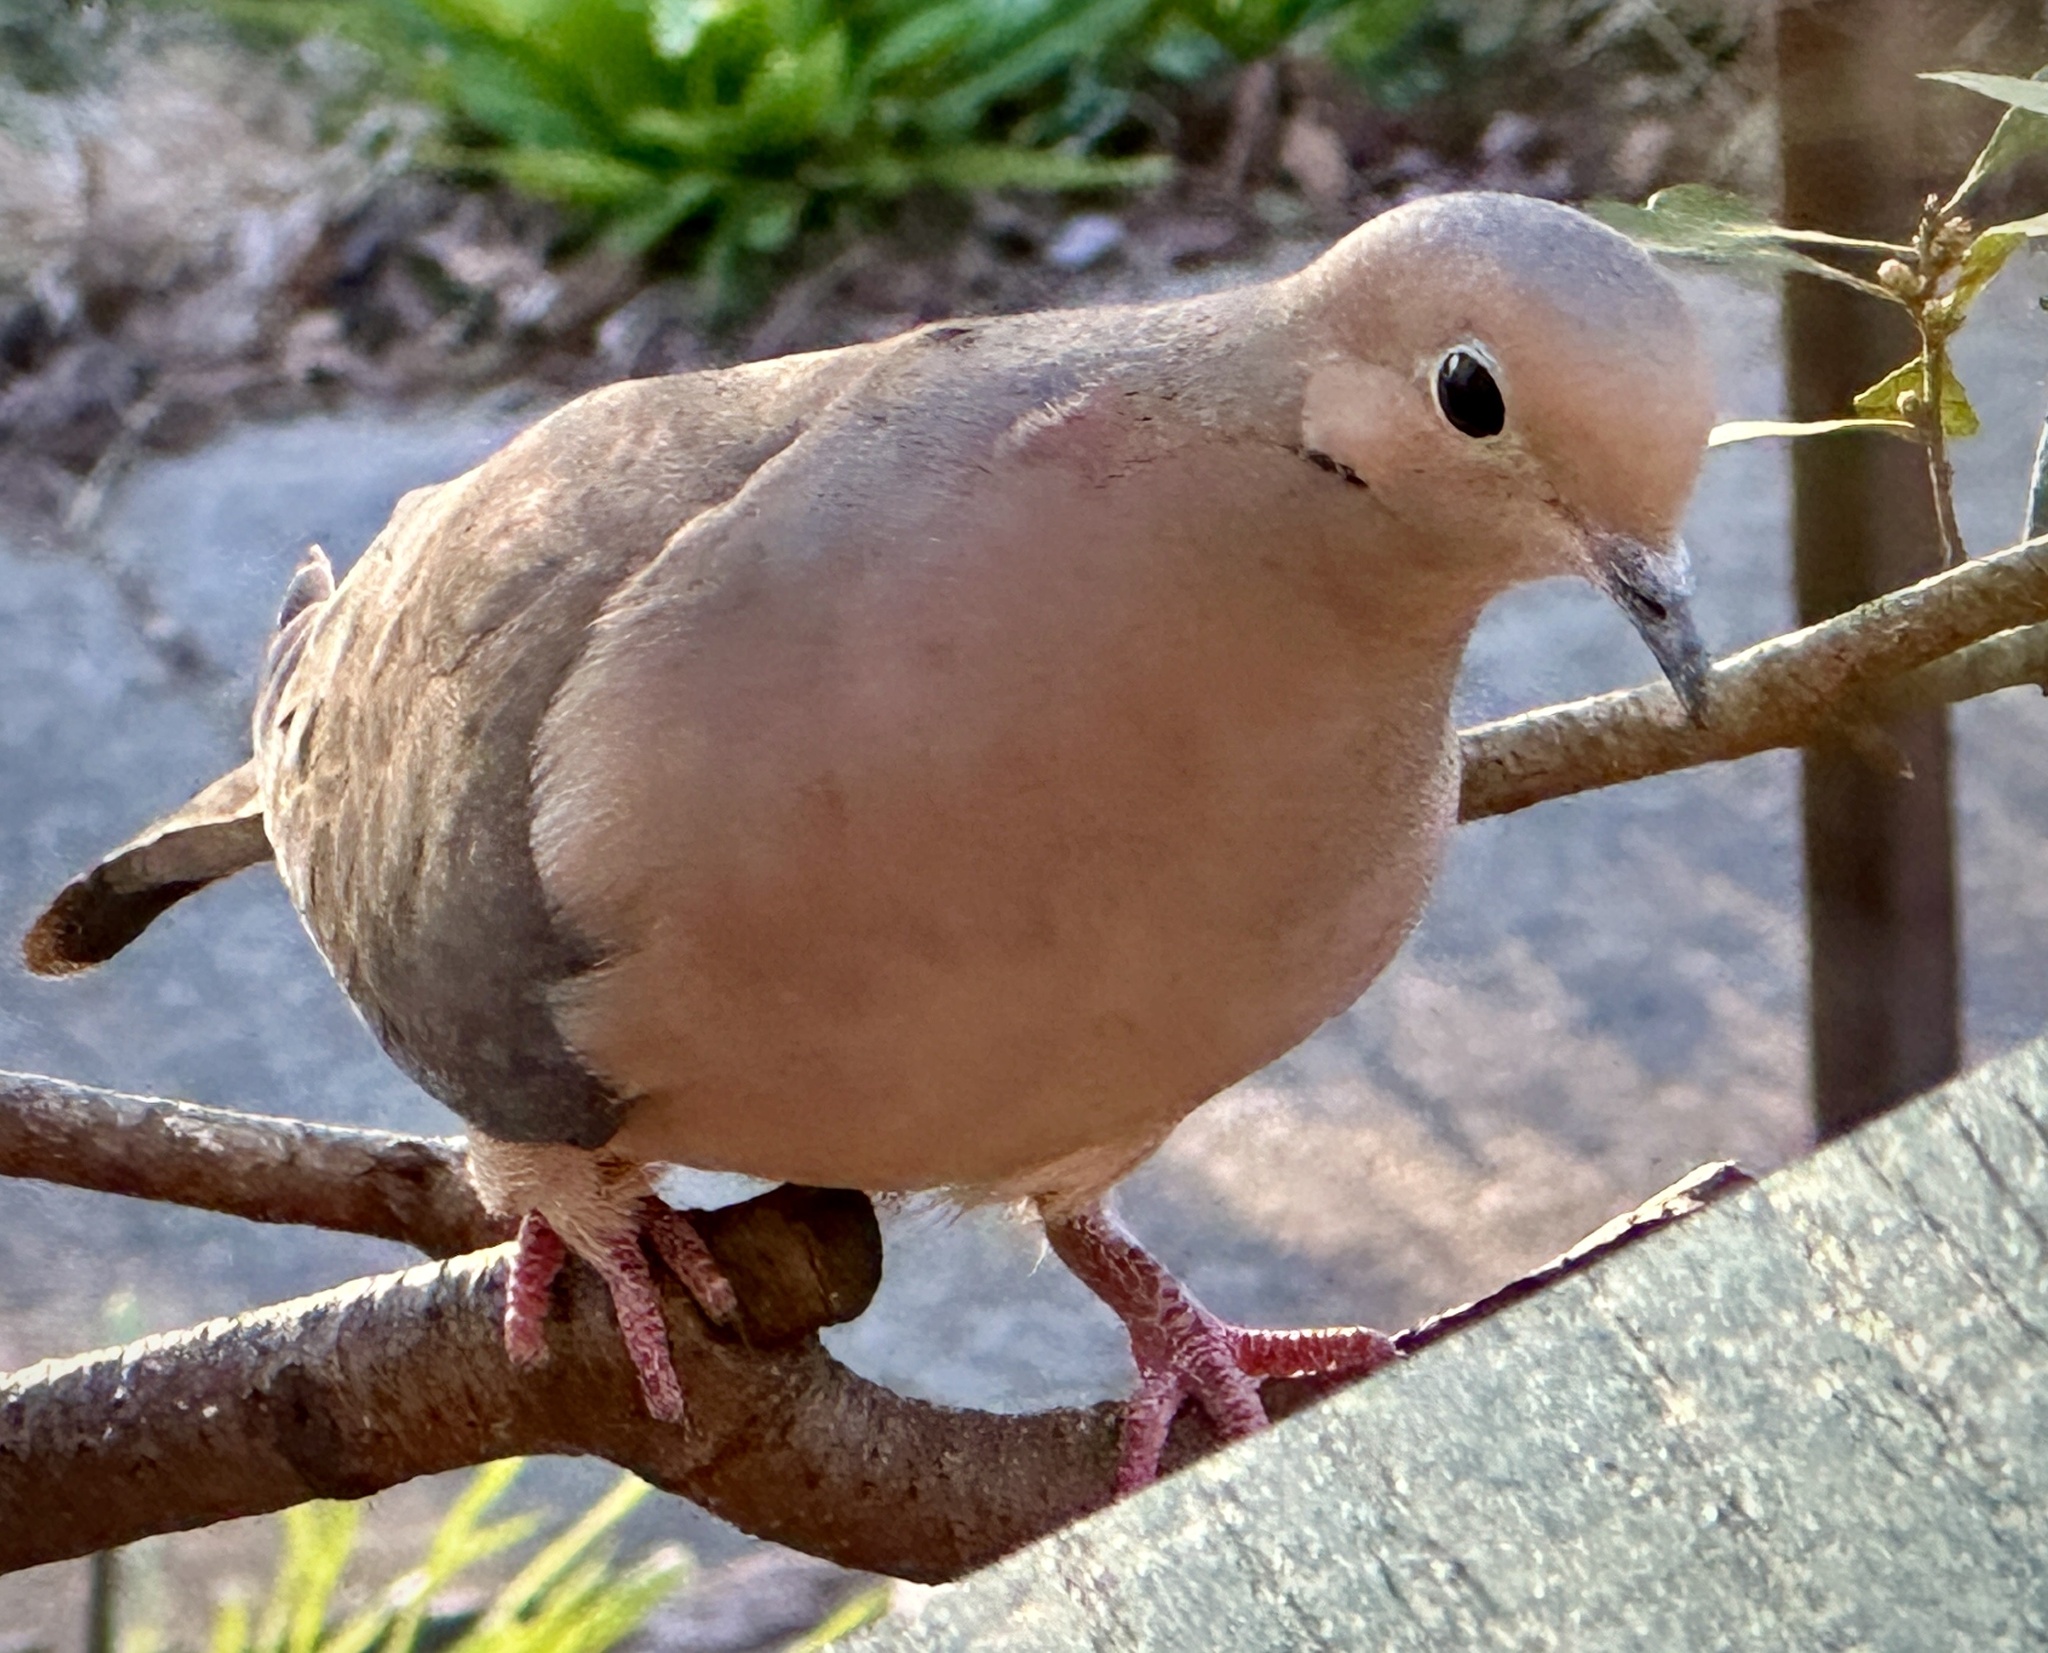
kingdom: Animalia
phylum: Chordata
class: Aves
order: Columbiformes
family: Columbidae
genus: Zenaida
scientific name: Zenaida macroura
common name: Mourning dove
